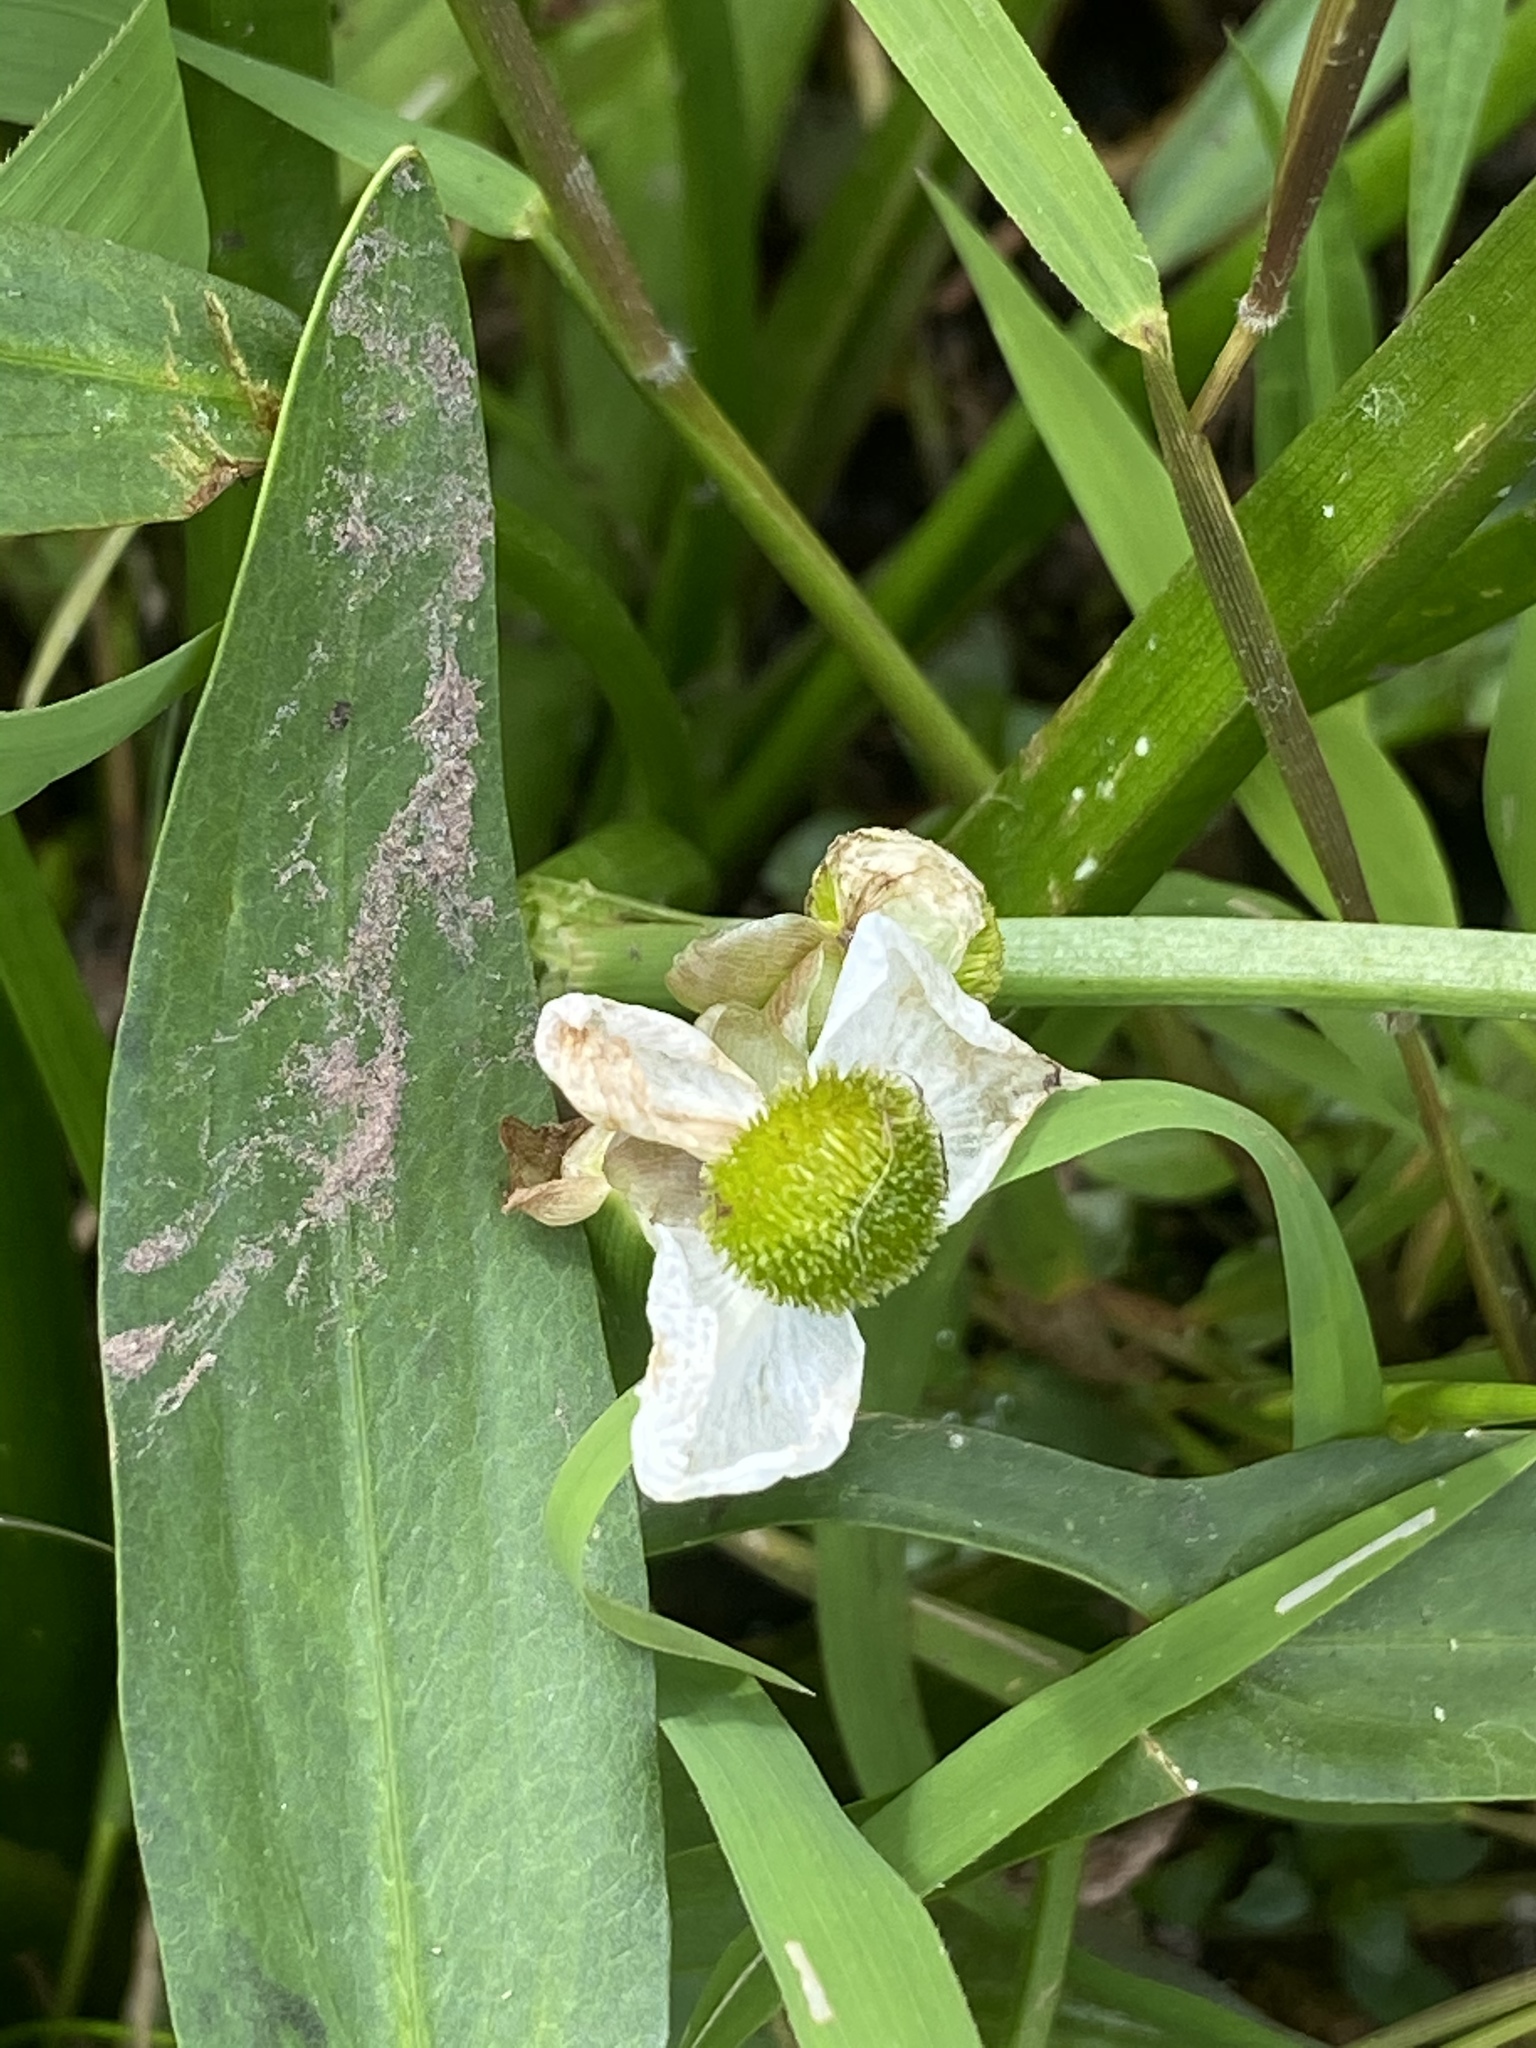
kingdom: Plantae
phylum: Tracheophyta
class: Liliopsida
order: Alismatales
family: Alismataceae
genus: Sagittaria
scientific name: Sagittaria latifolia
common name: Duck-potato
